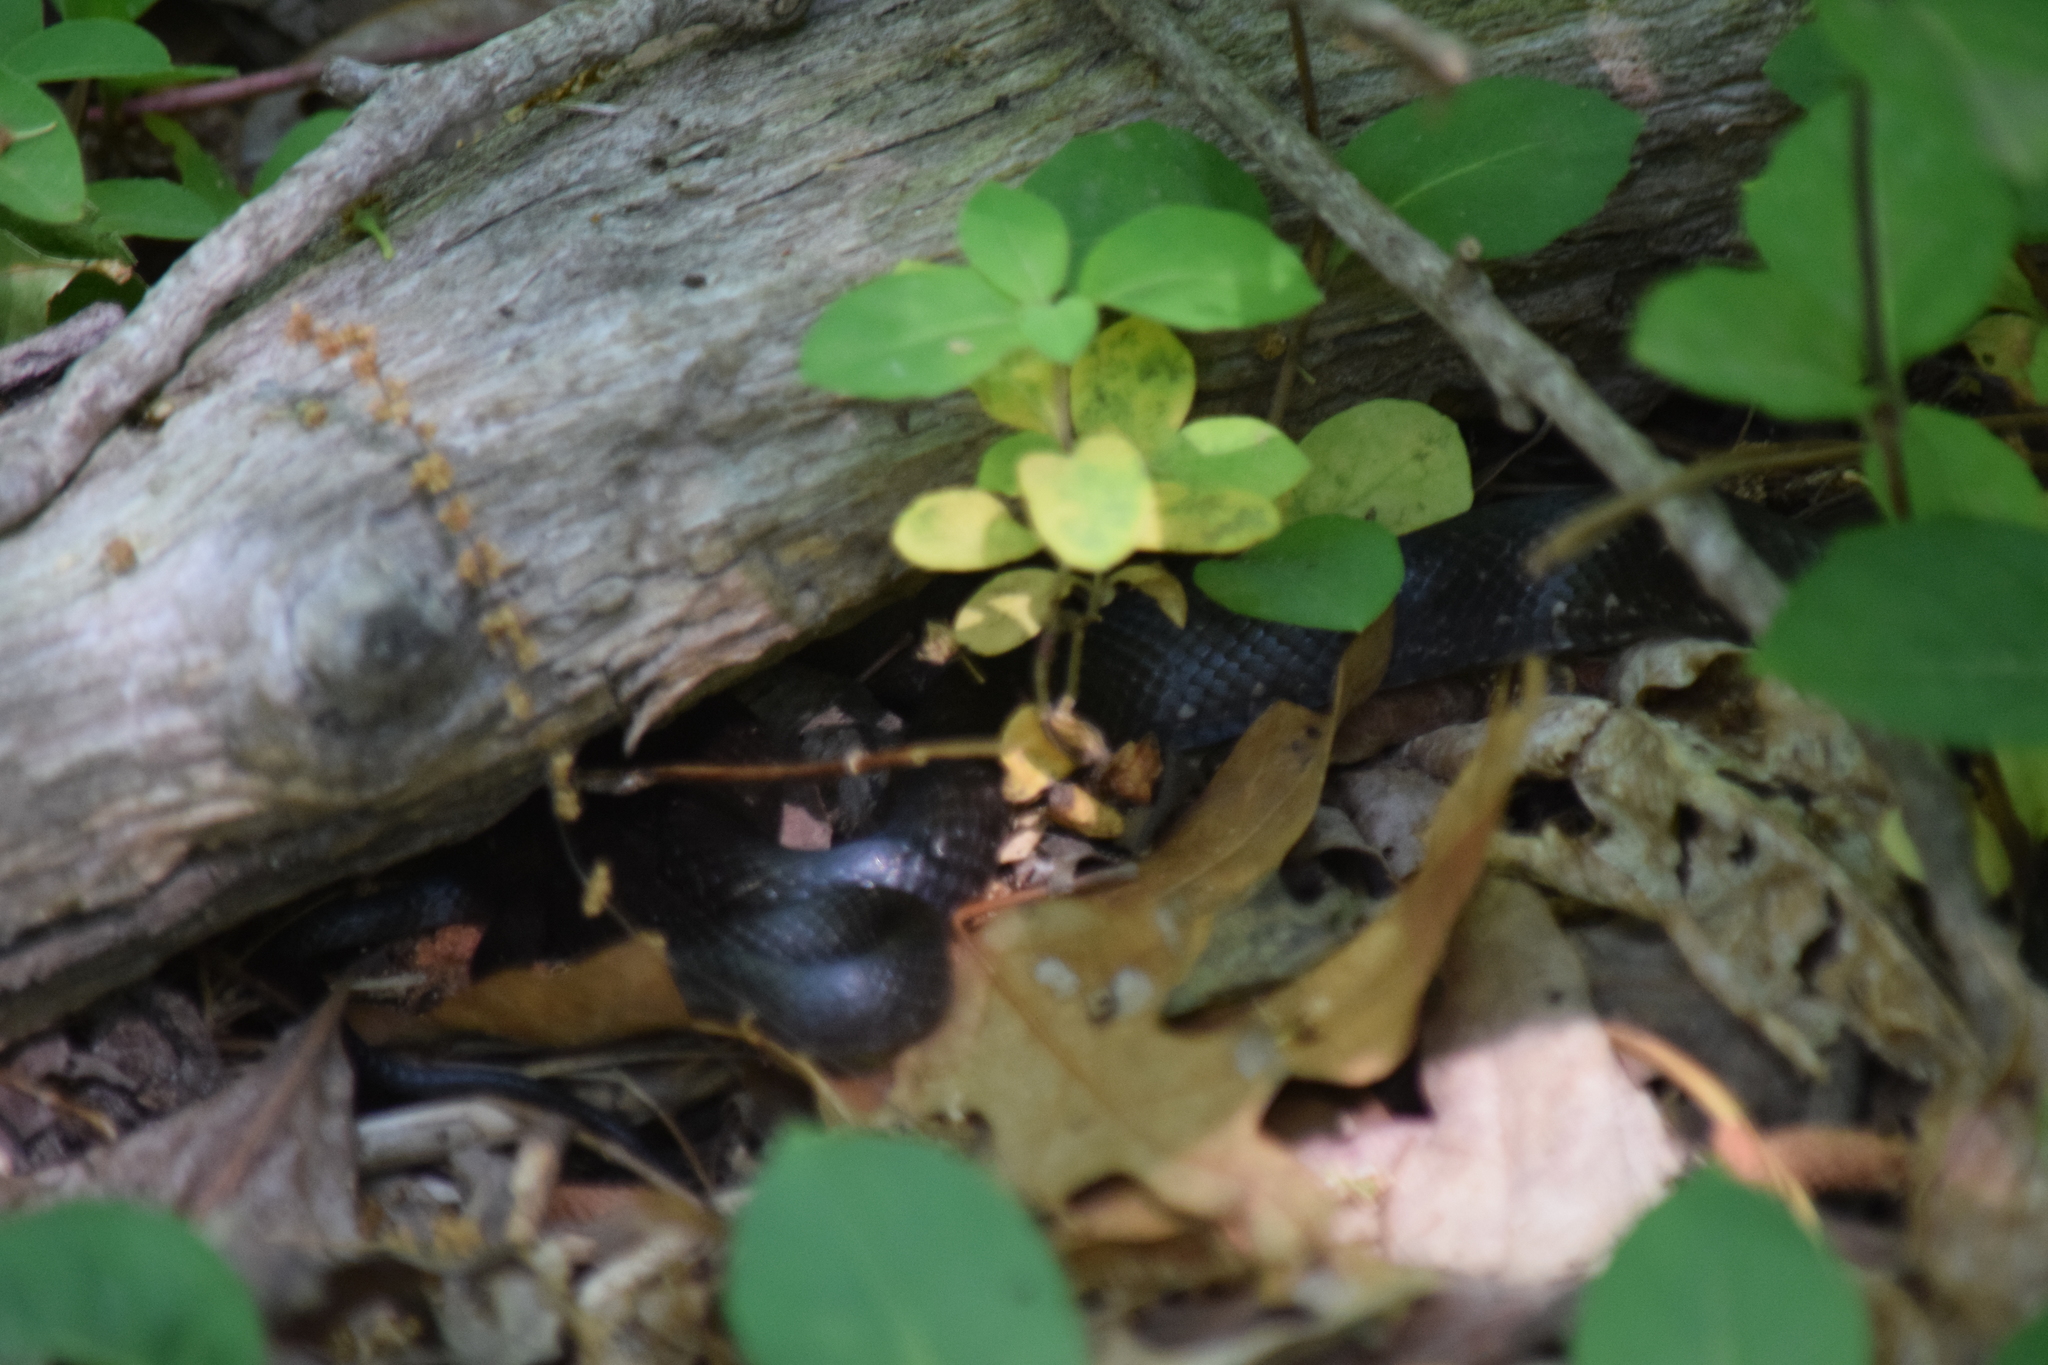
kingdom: Animalia
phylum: Chordata
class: Squamata
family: Colubridae
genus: Pantherophis
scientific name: Pantherophis alleghaniensis
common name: Eastern rat snake
